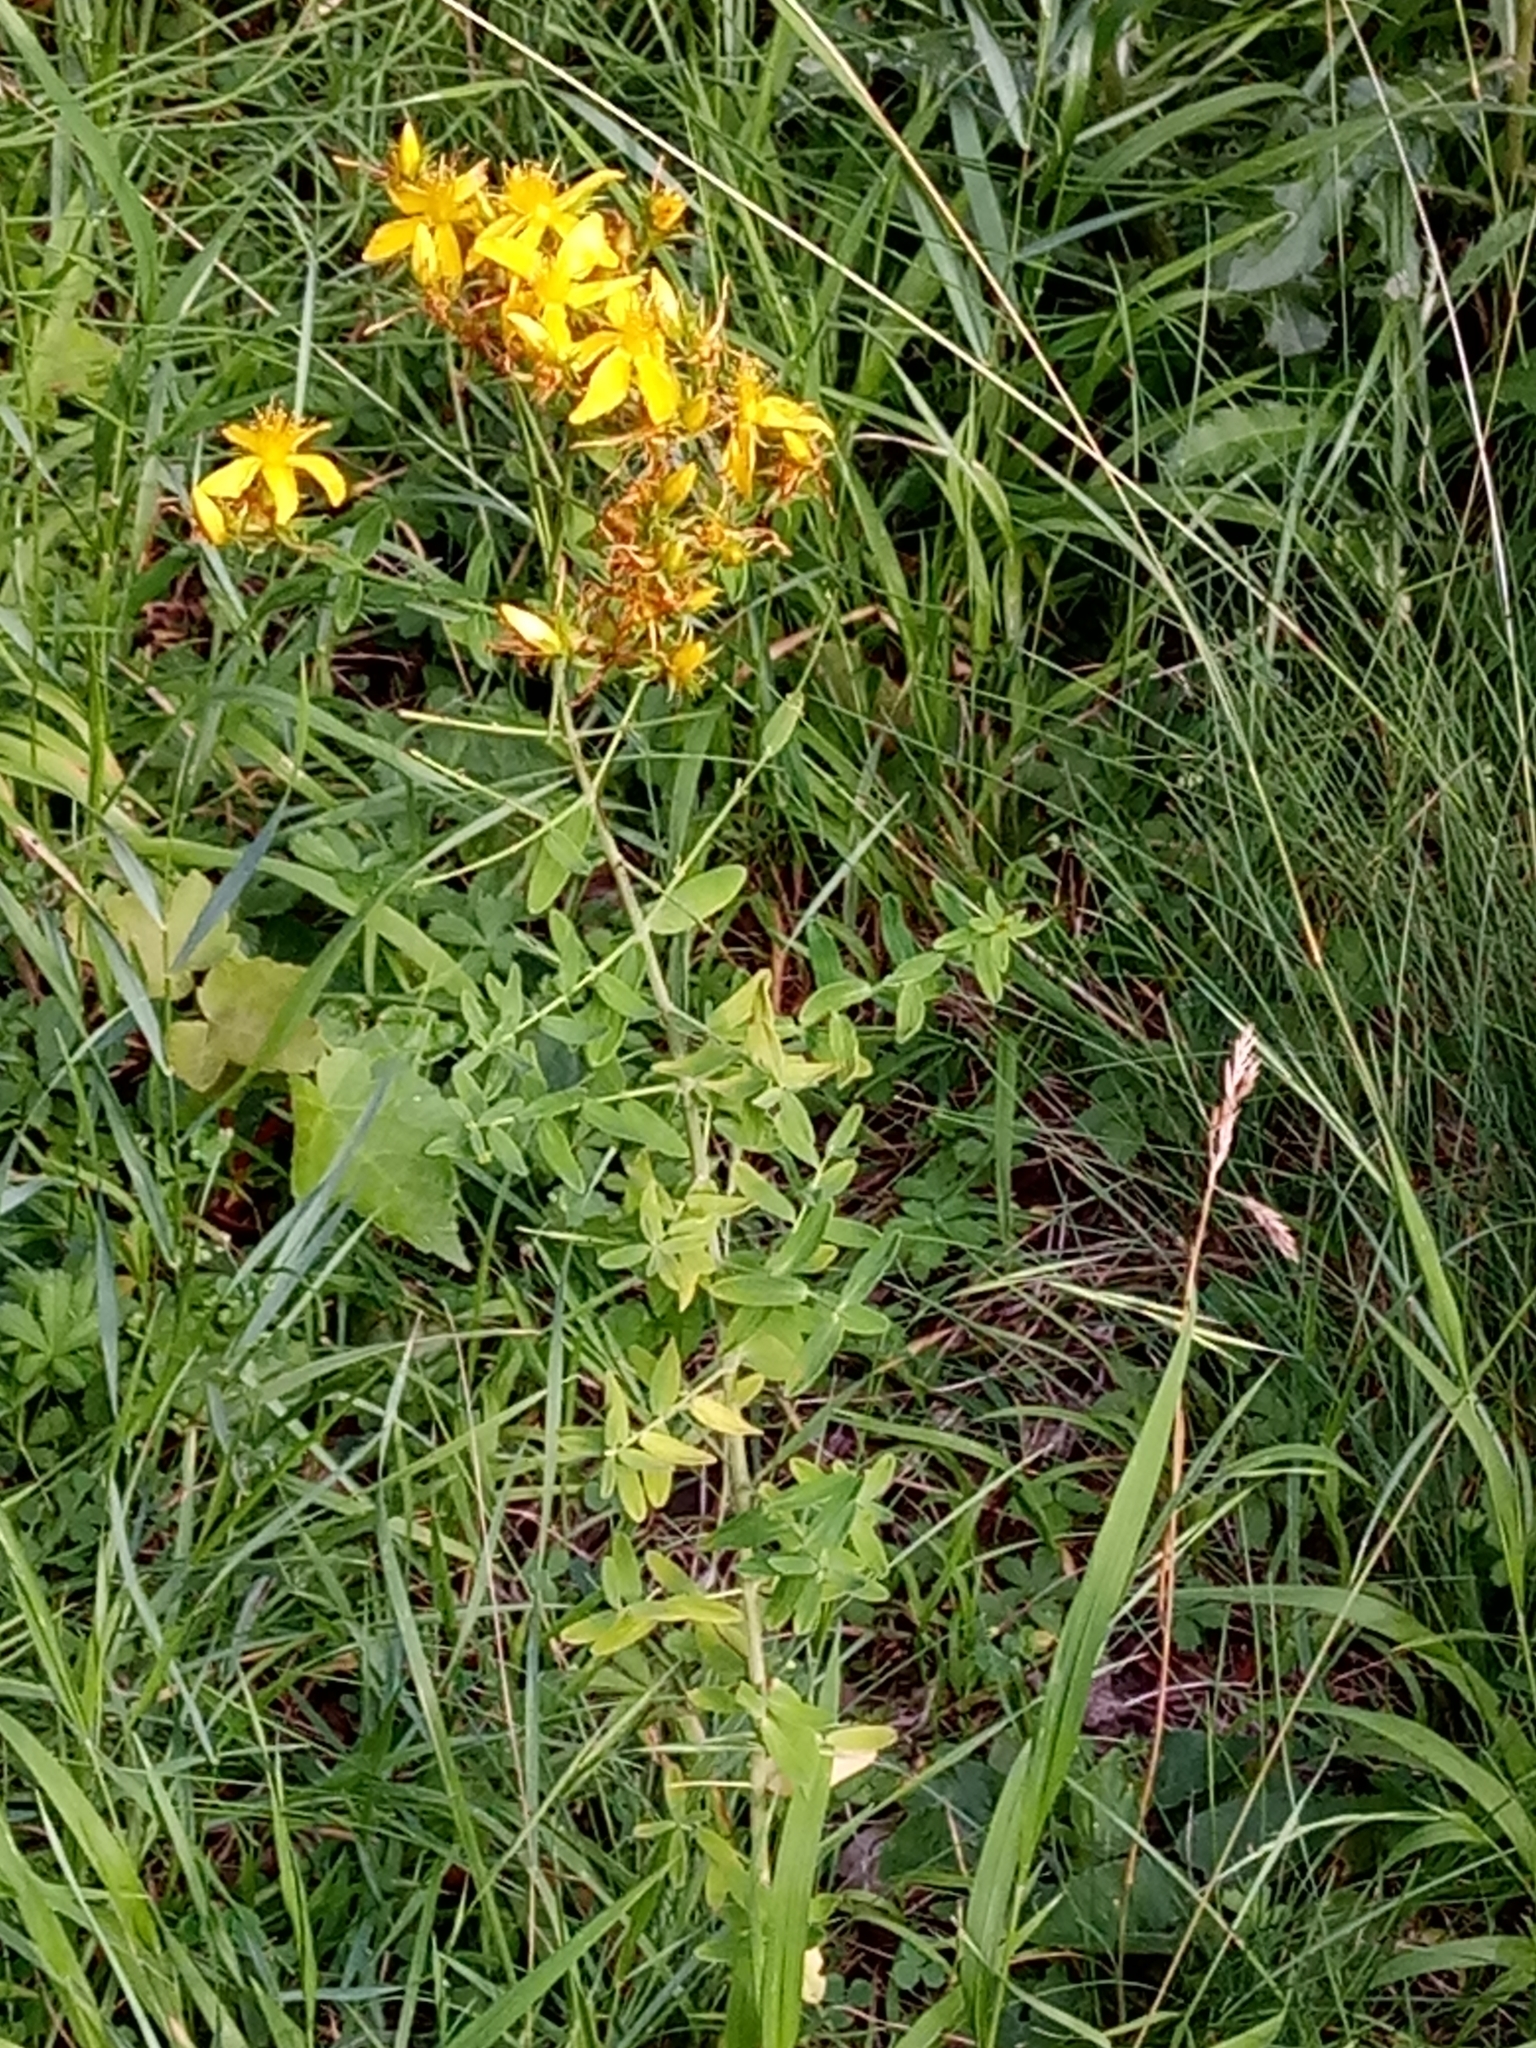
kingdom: Plantae
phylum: Tracheophyta
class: Magnoliopsida
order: Malpighiales
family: Hypericaceae
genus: Hypericum
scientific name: Hypericum perforatum
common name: Common st. johnswort
